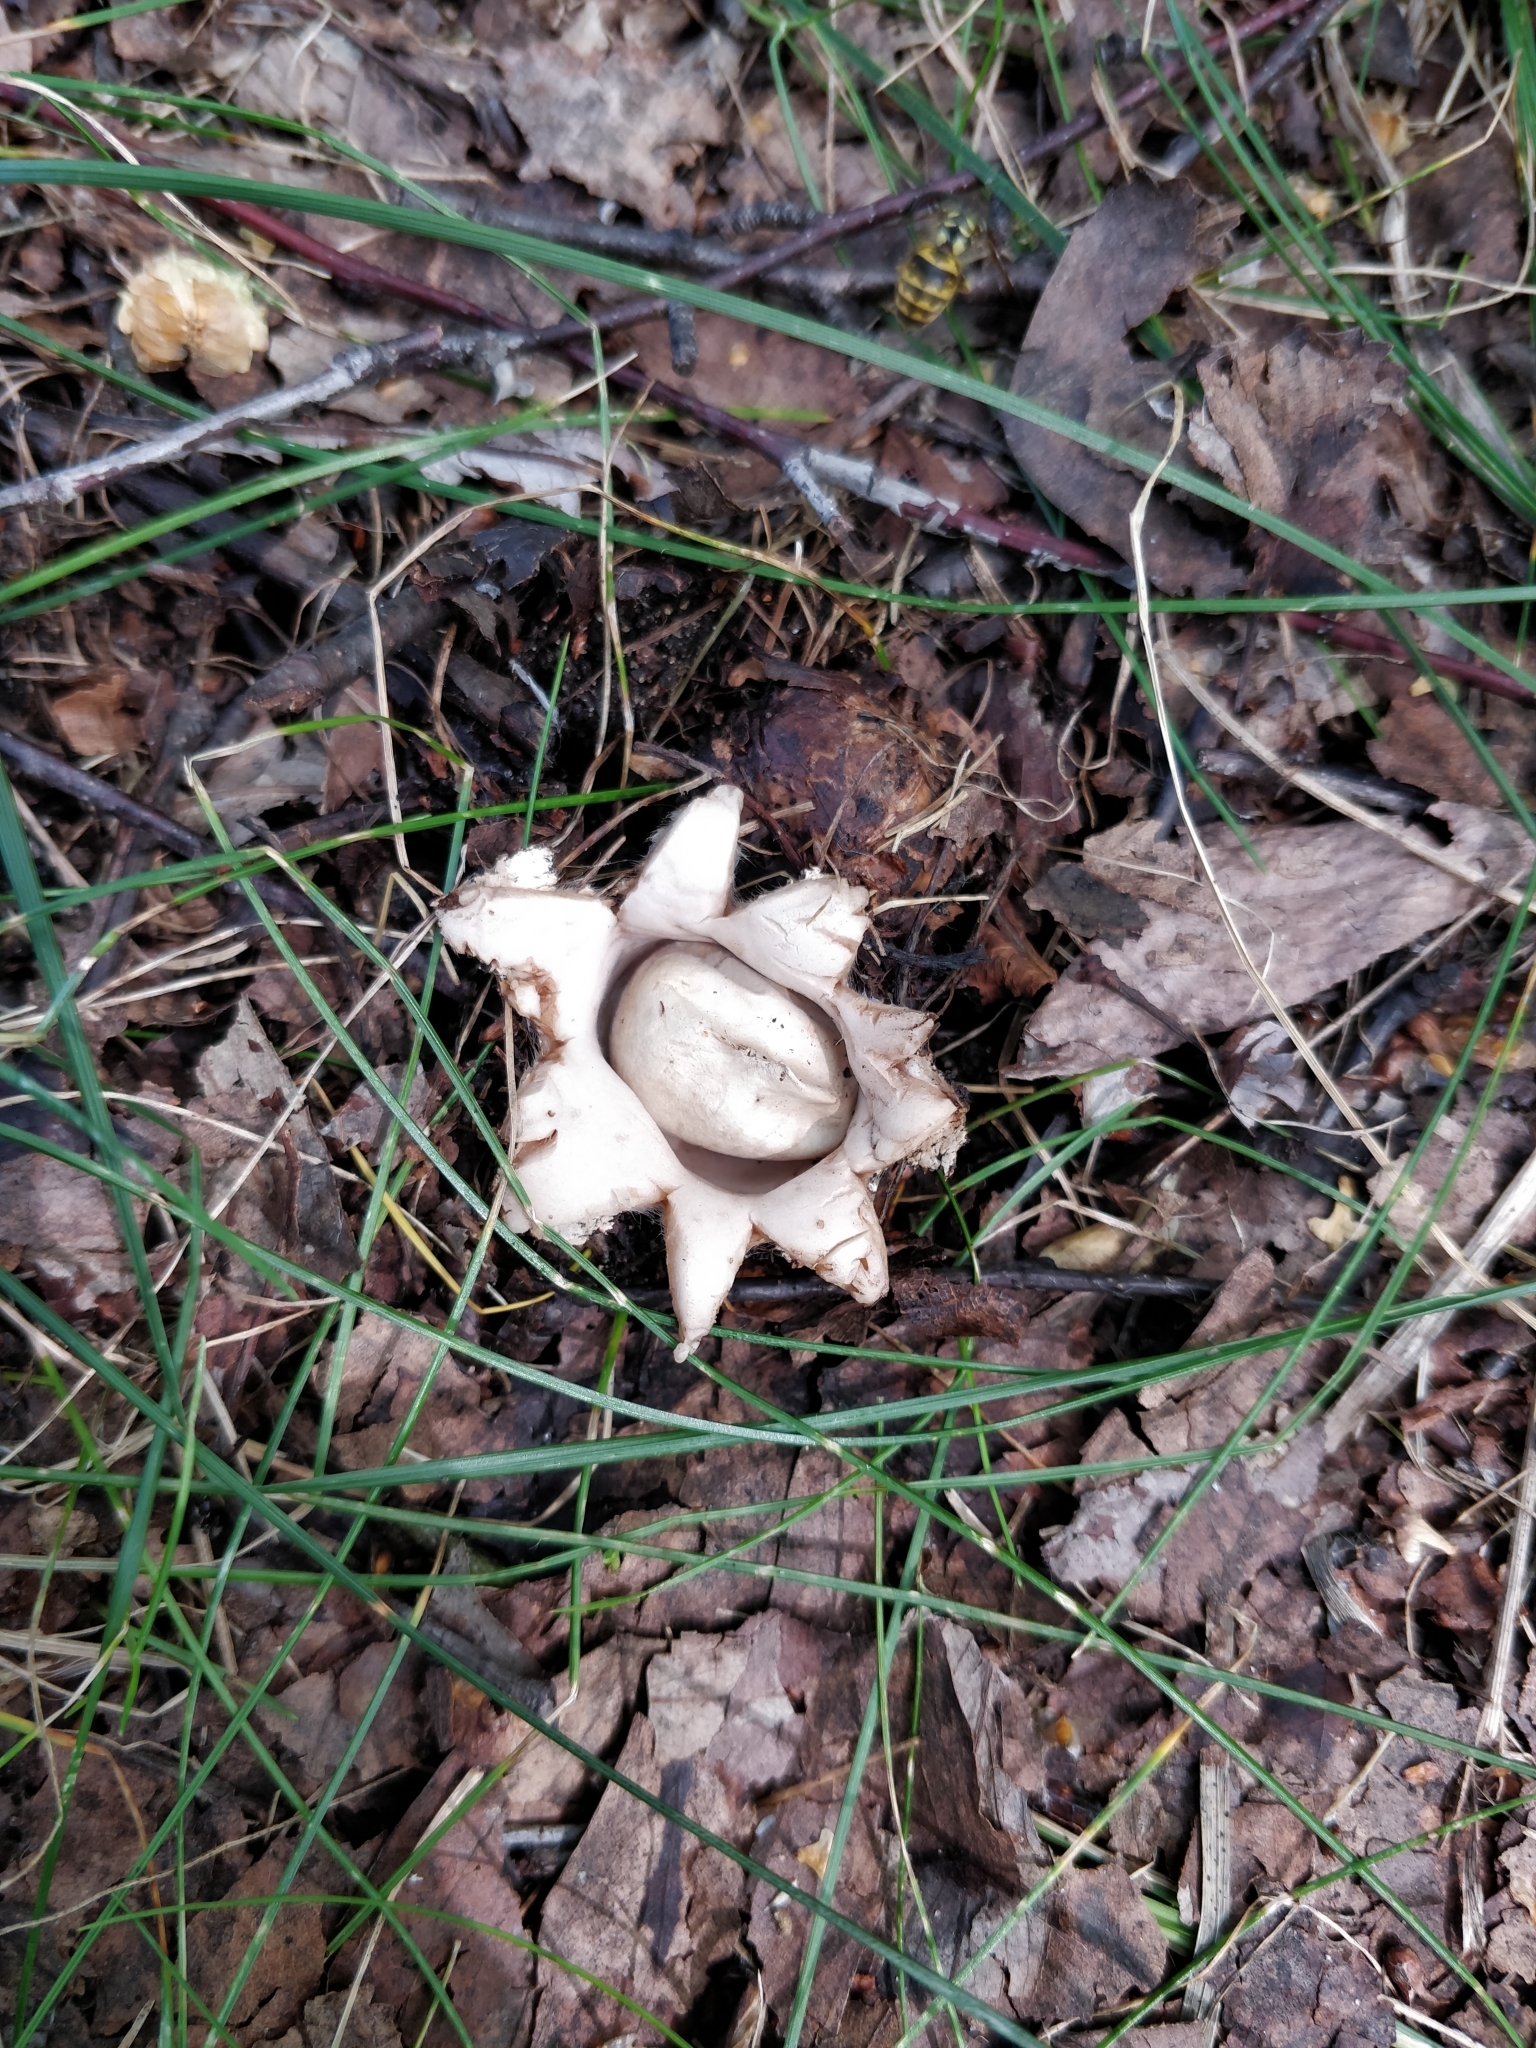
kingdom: Fungi
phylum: Basidiomycota
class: Agaricomycetes
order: Geastrales
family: Geastraceae
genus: Geastrum
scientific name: Geastrum
